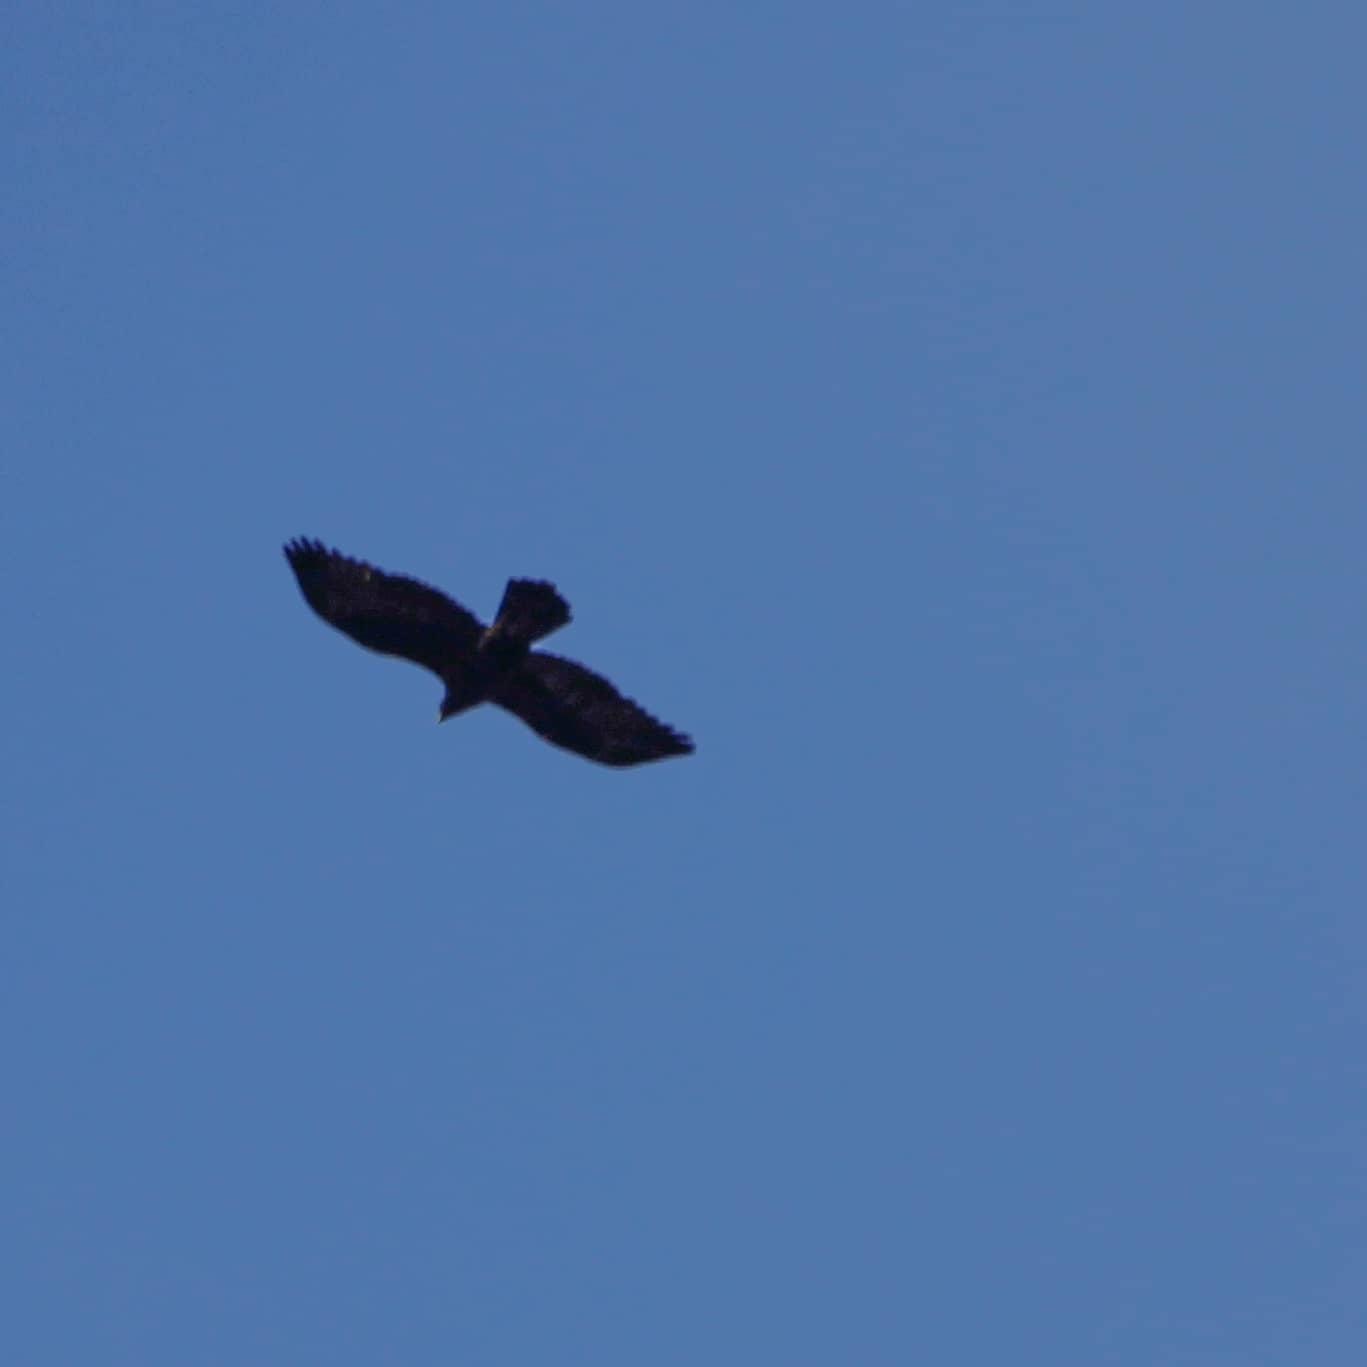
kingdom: Animalia
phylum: Chordata
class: Aves
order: Accipitriformes
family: Accipitridae
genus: Aquila
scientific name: Aquila chrysaetos
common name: Golden eagle
